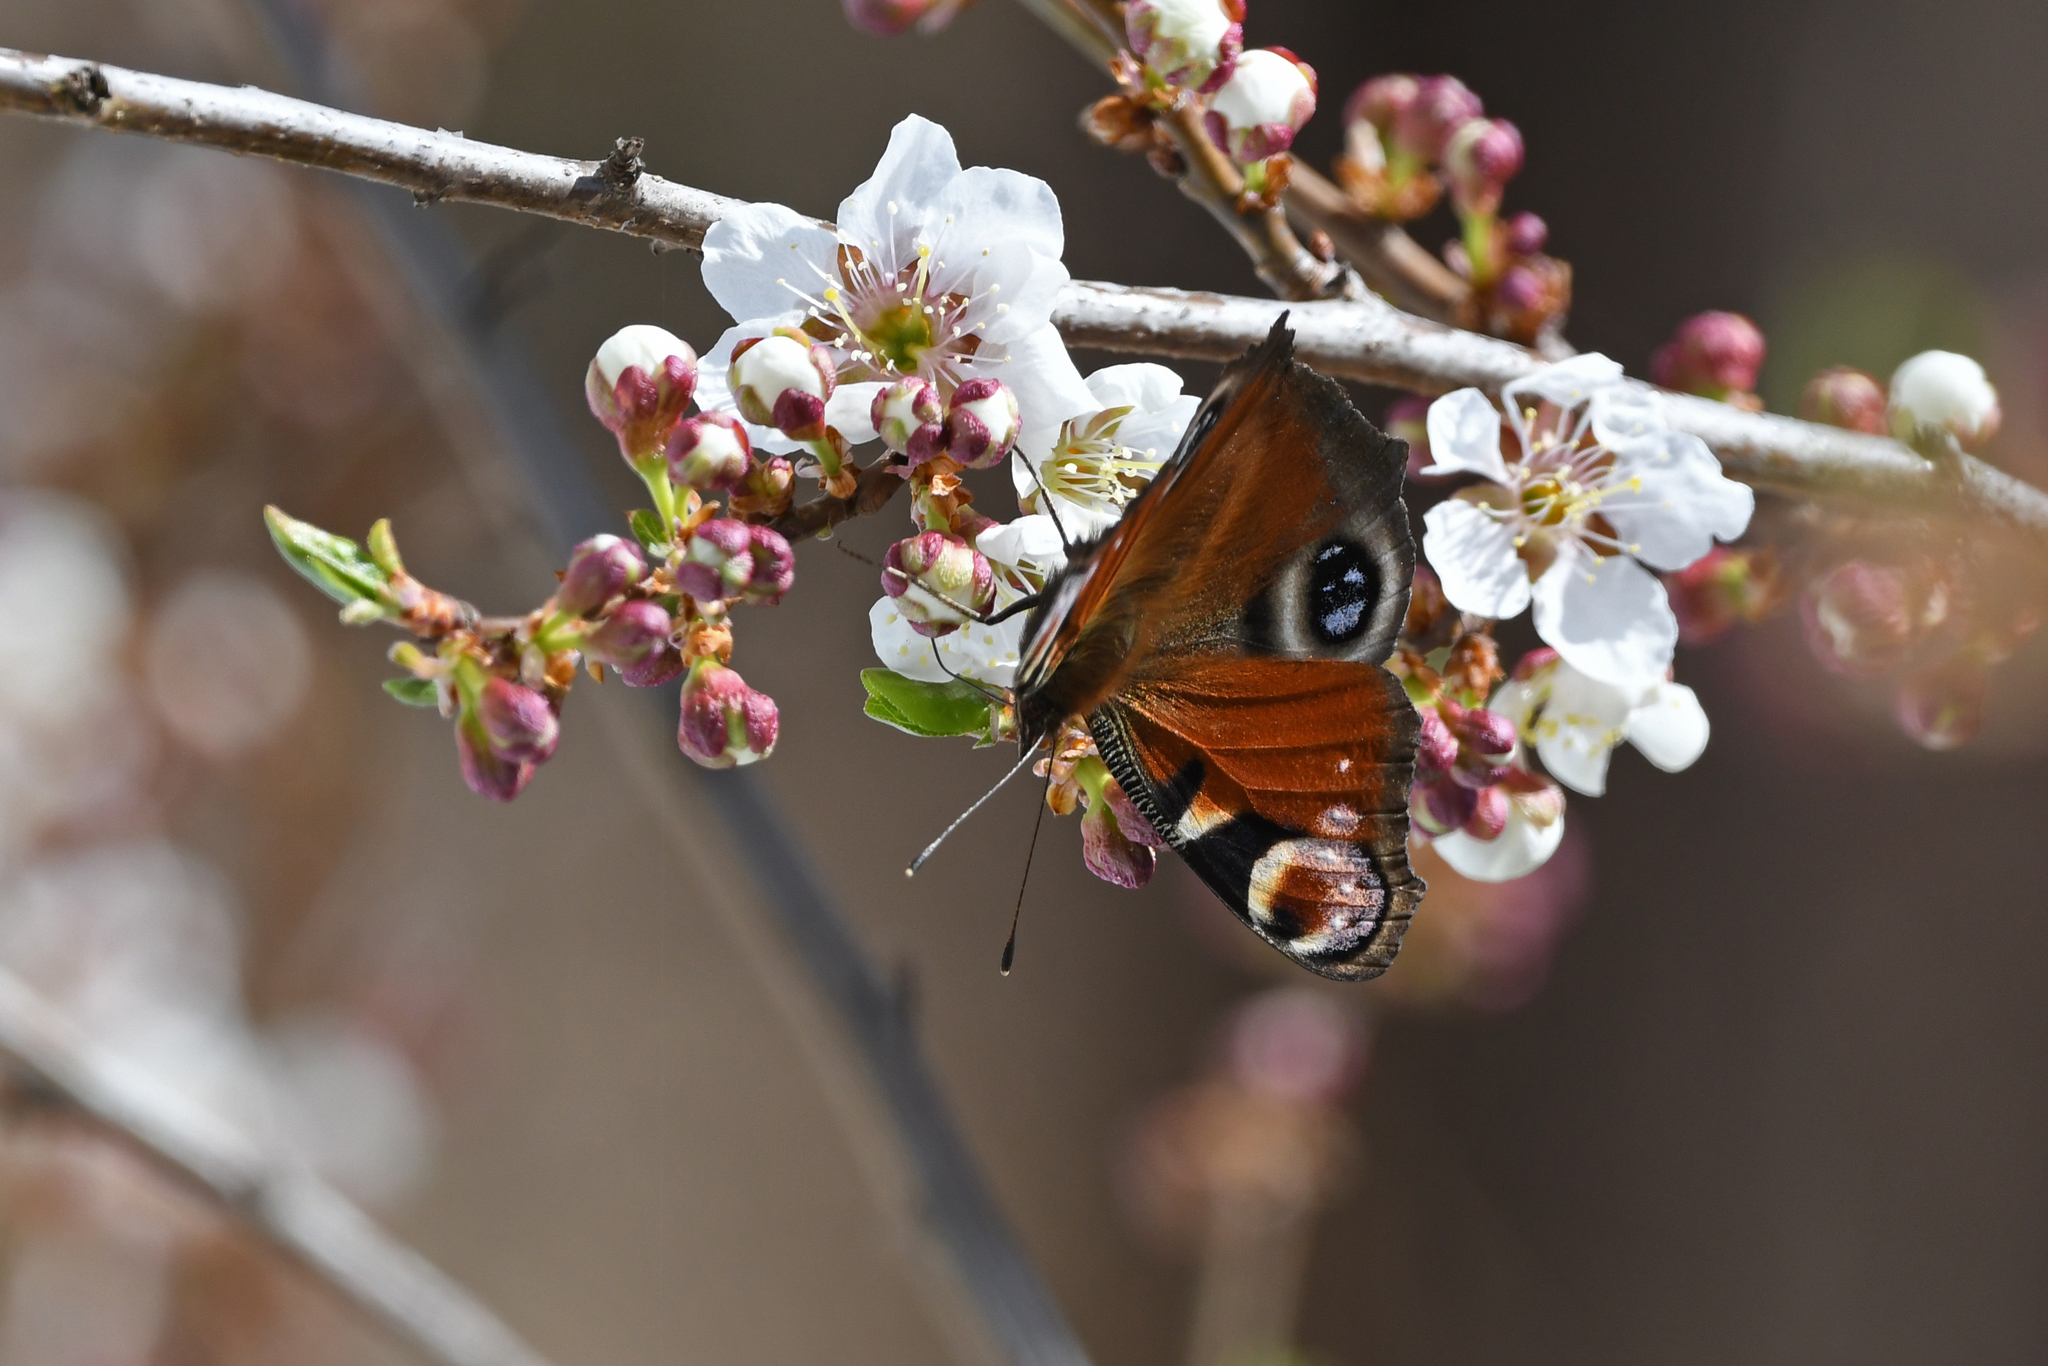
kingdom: Animalia
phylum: Arthropoda
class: Insecta
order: Lepidoptera
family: Nymphalidae
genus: Aglais
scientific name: Aglais io
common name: Peacock
